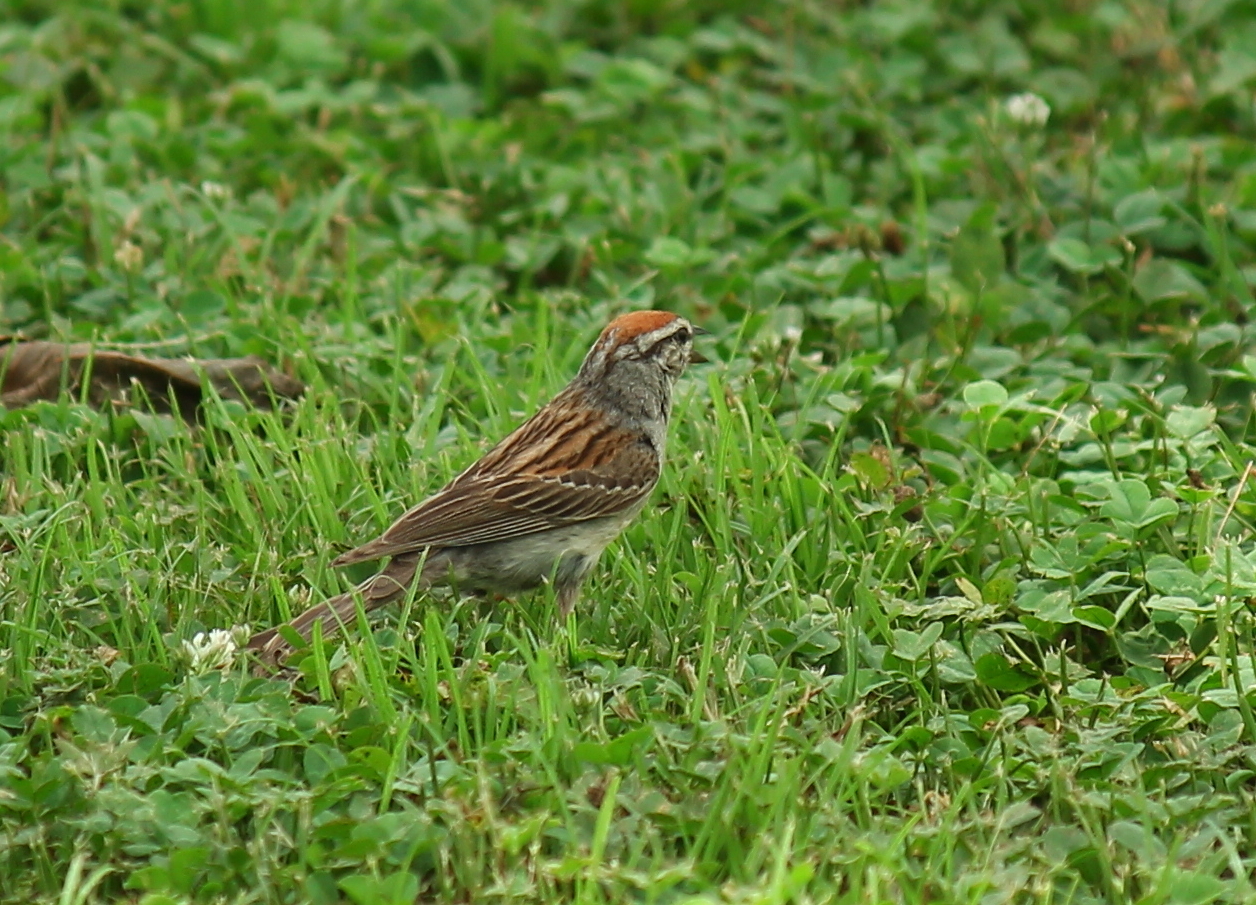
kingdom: Animalia
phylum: Chordata
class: Aves
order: Passeriformes
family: Passerellidae
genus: Spizella
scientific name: Spizella passerina
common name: Chipping sparrow
